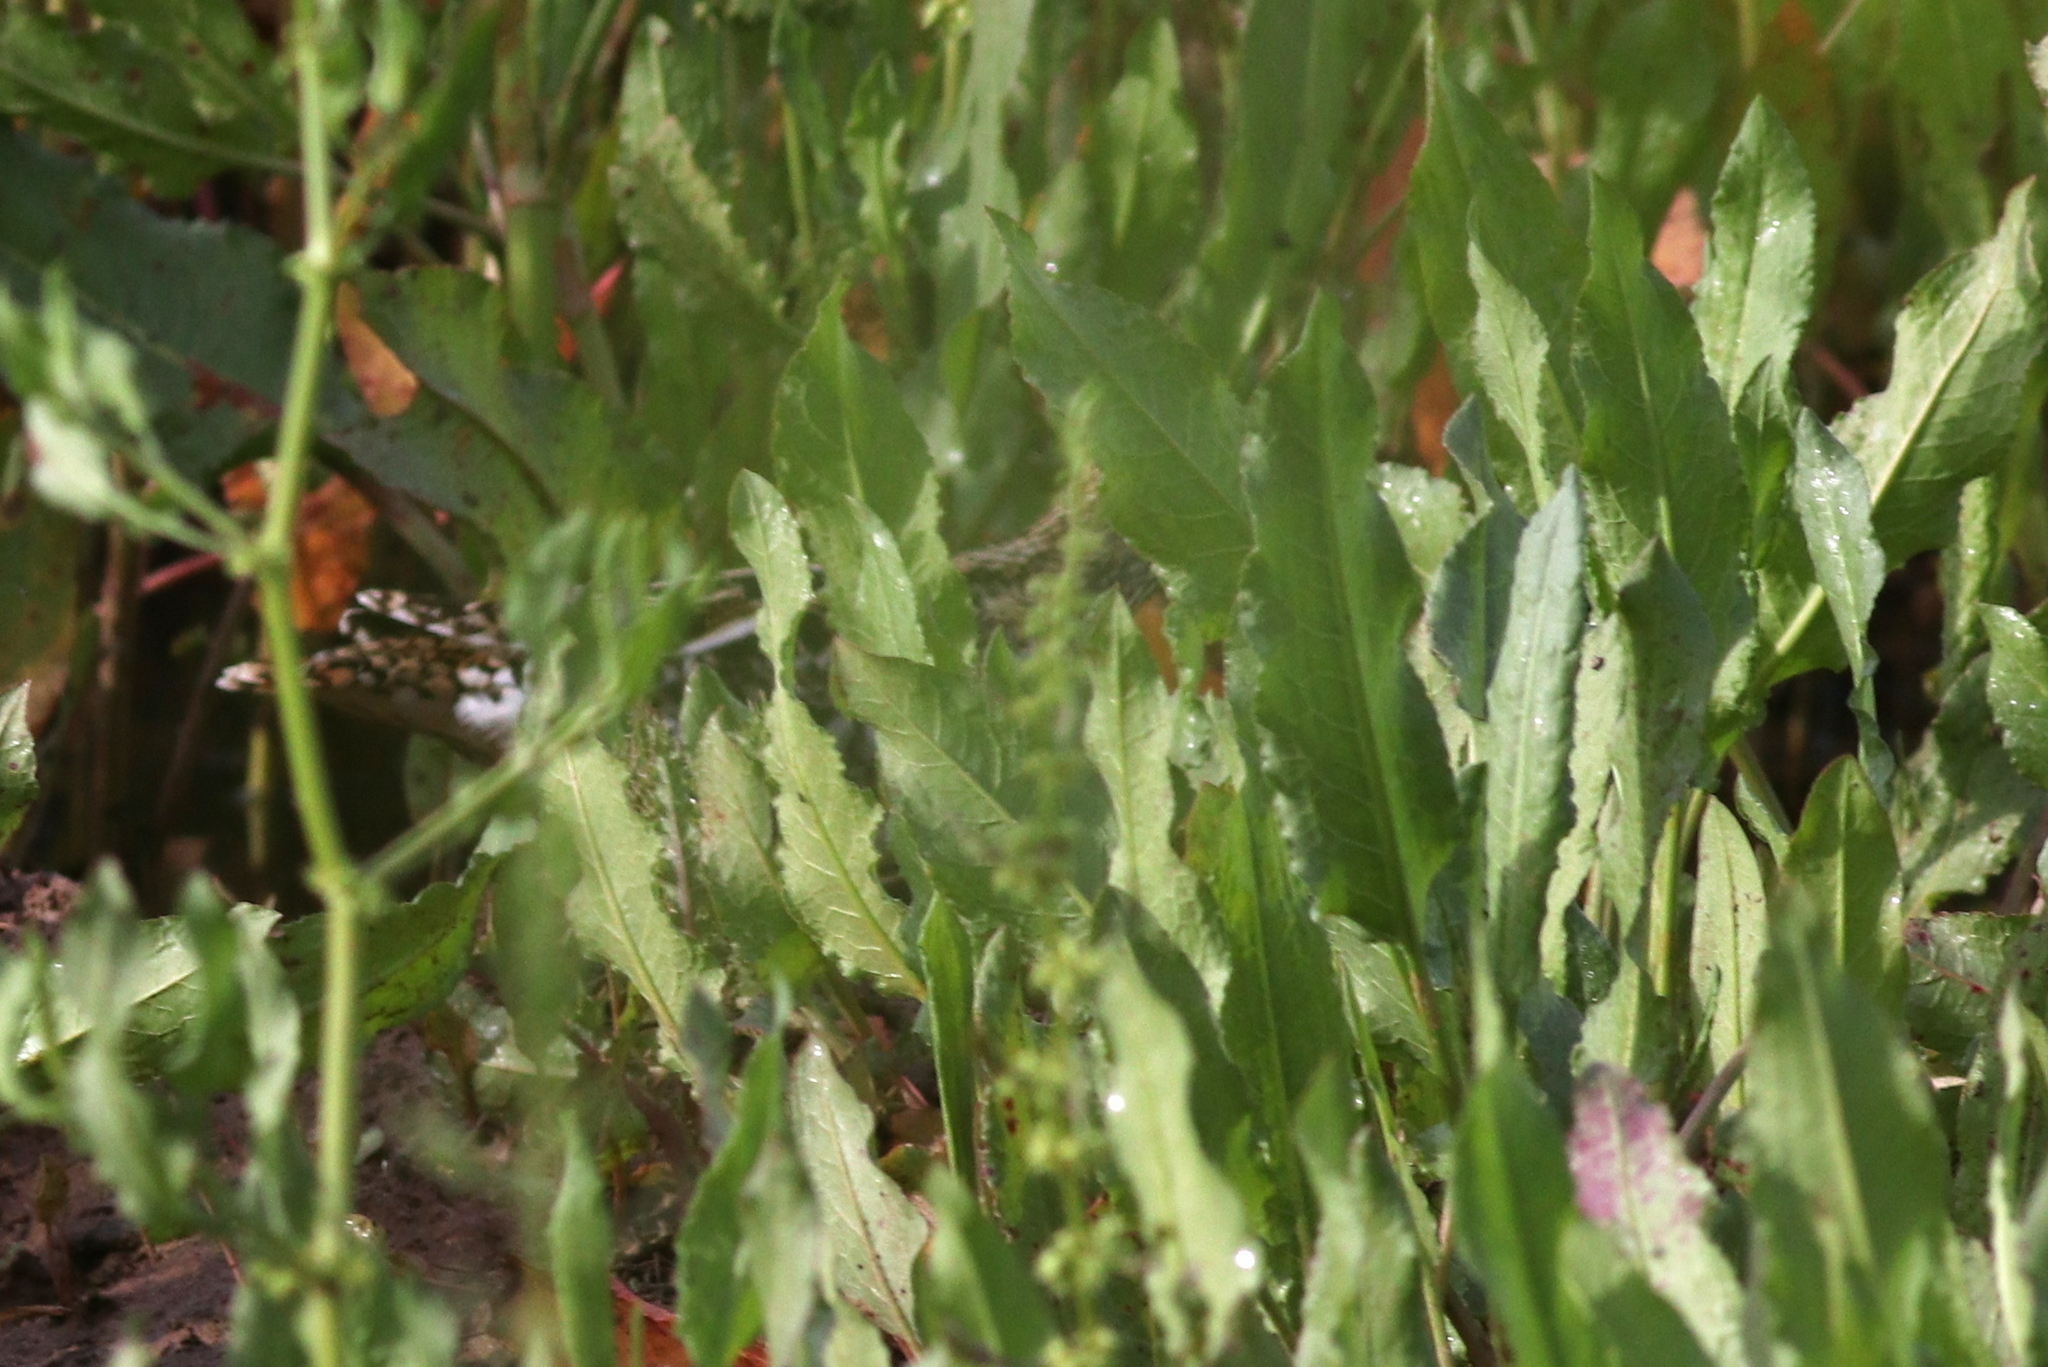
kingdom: Animalia
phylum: Chordata
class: Aves
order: Charadriiformes
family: Scolopacidae
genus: Gallinago
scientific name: Gallinago delicata
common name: Wilson's snipe
